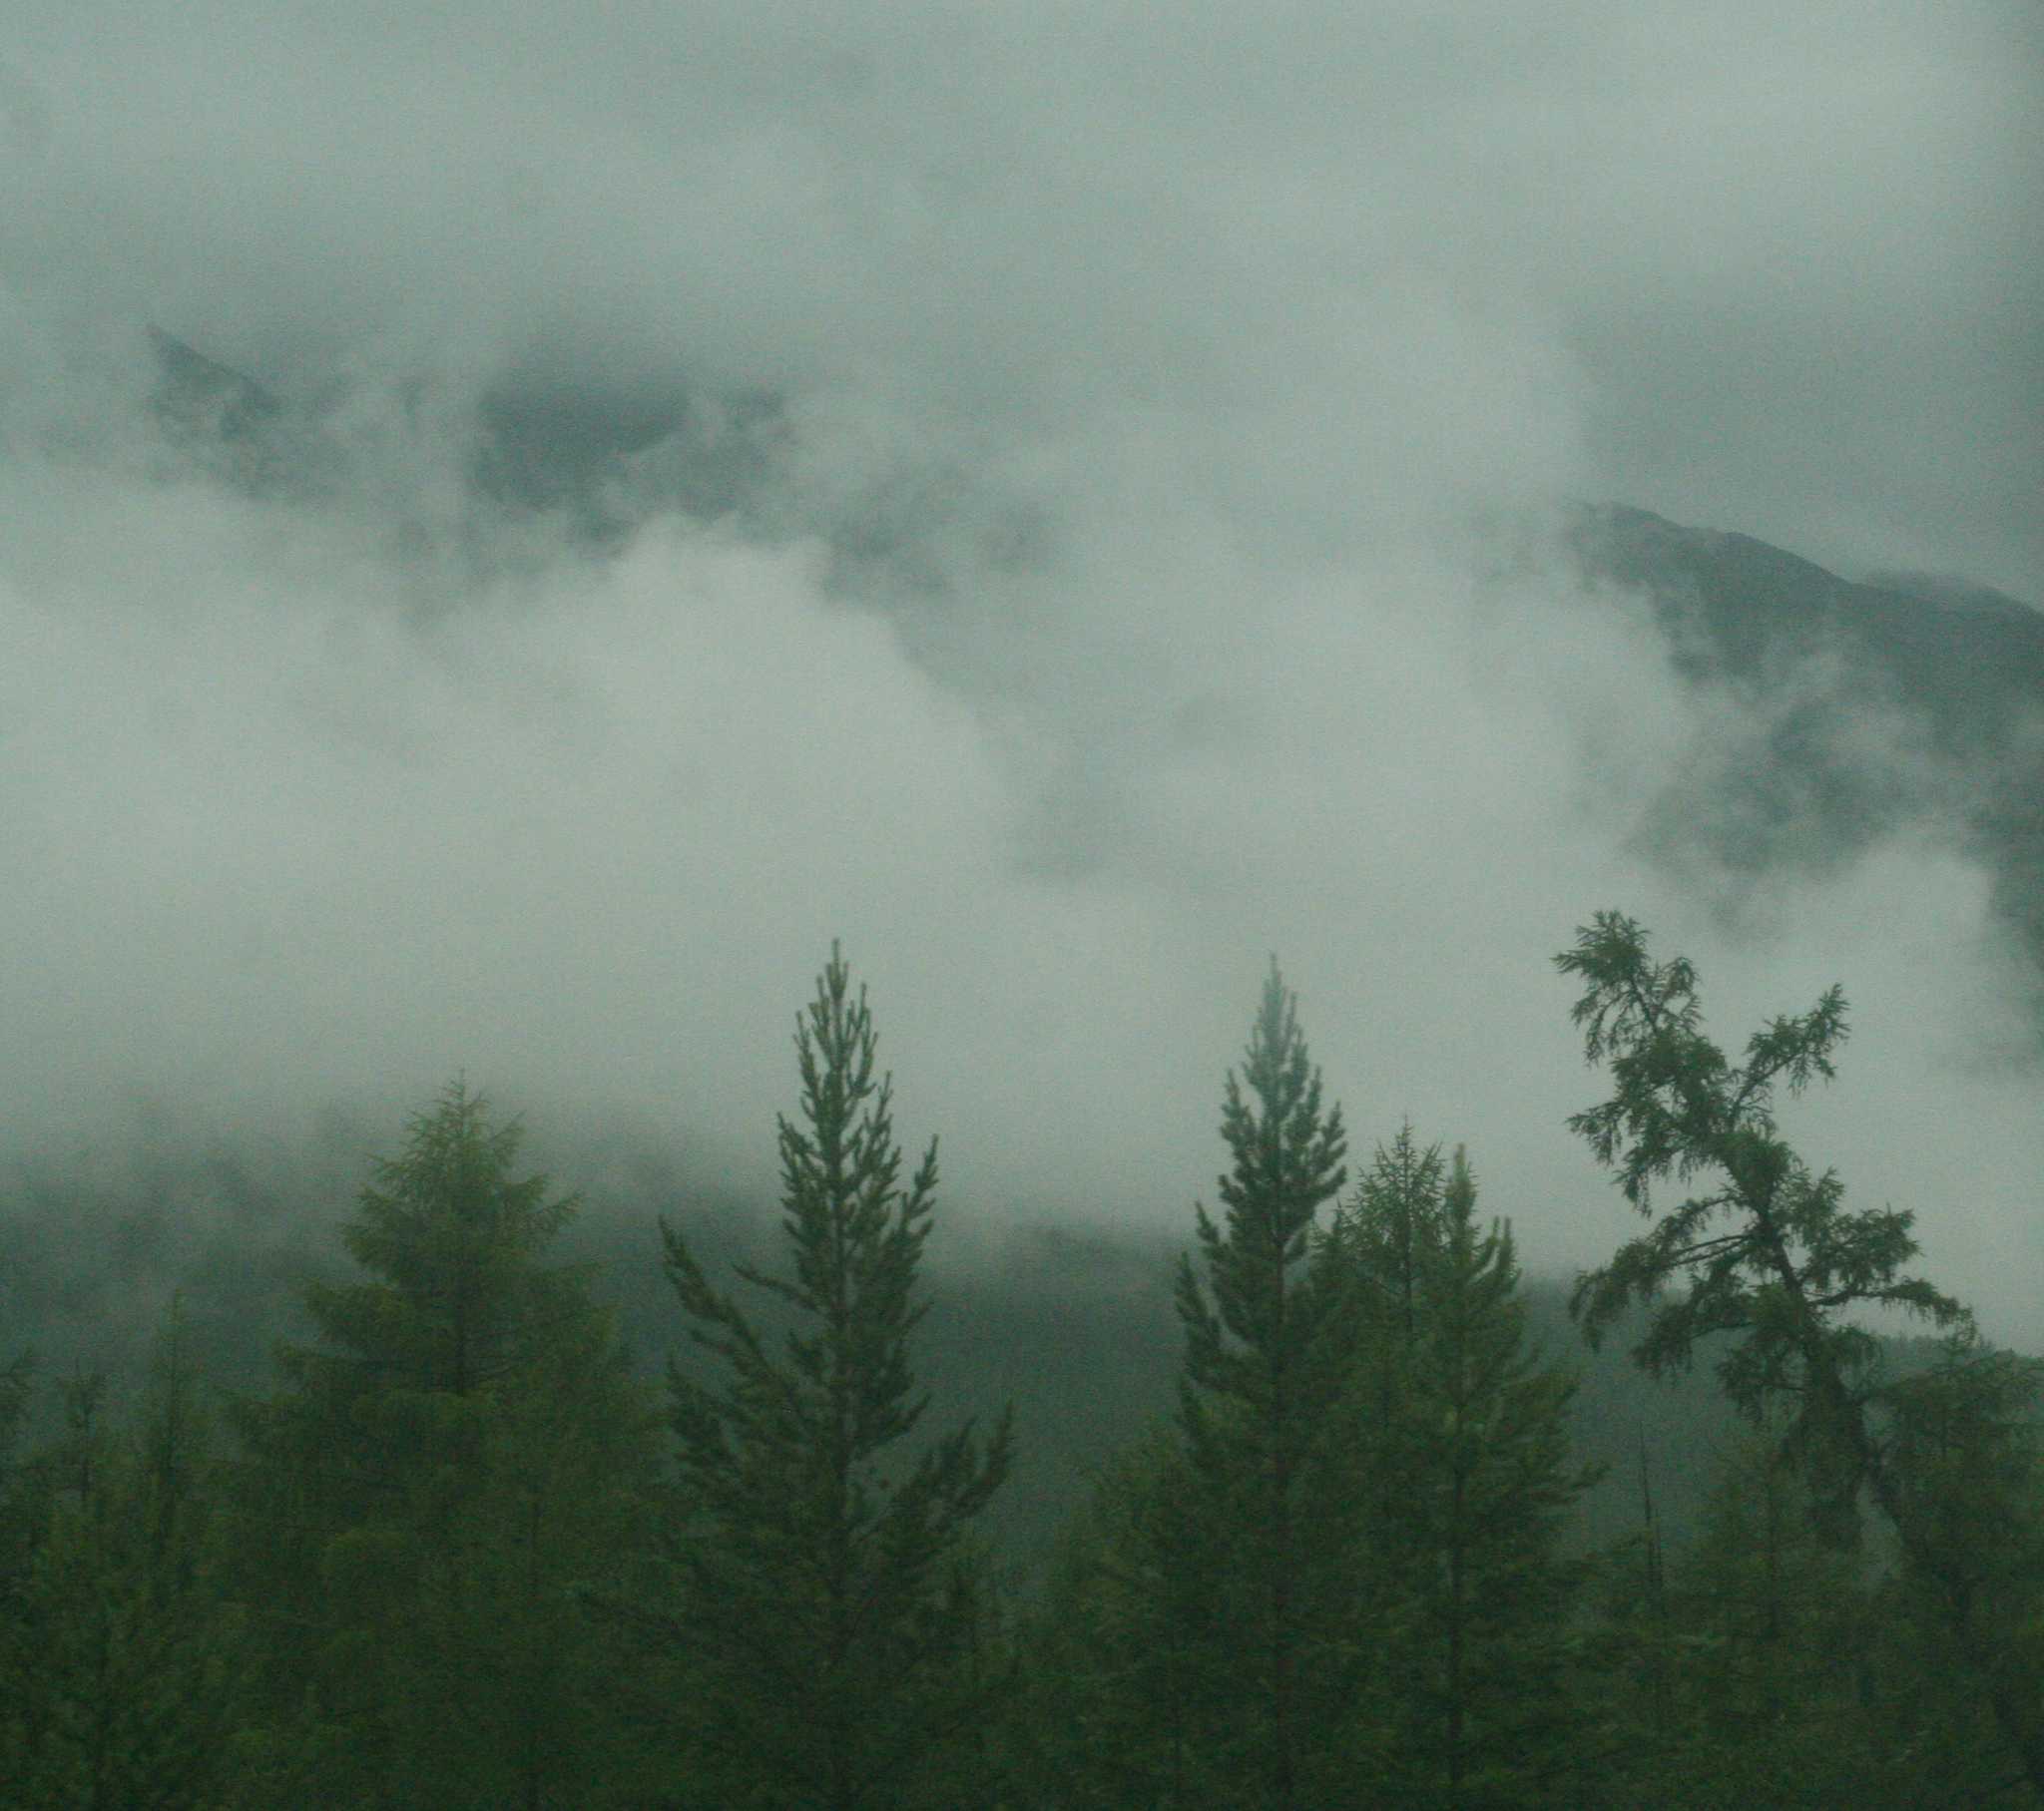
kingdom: Plantae
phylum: Tracheophyta
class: Pinopsida
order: Pinales
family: Pinaceae
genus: Pinus
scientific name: Pinus sylvestris
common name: Scots pine
